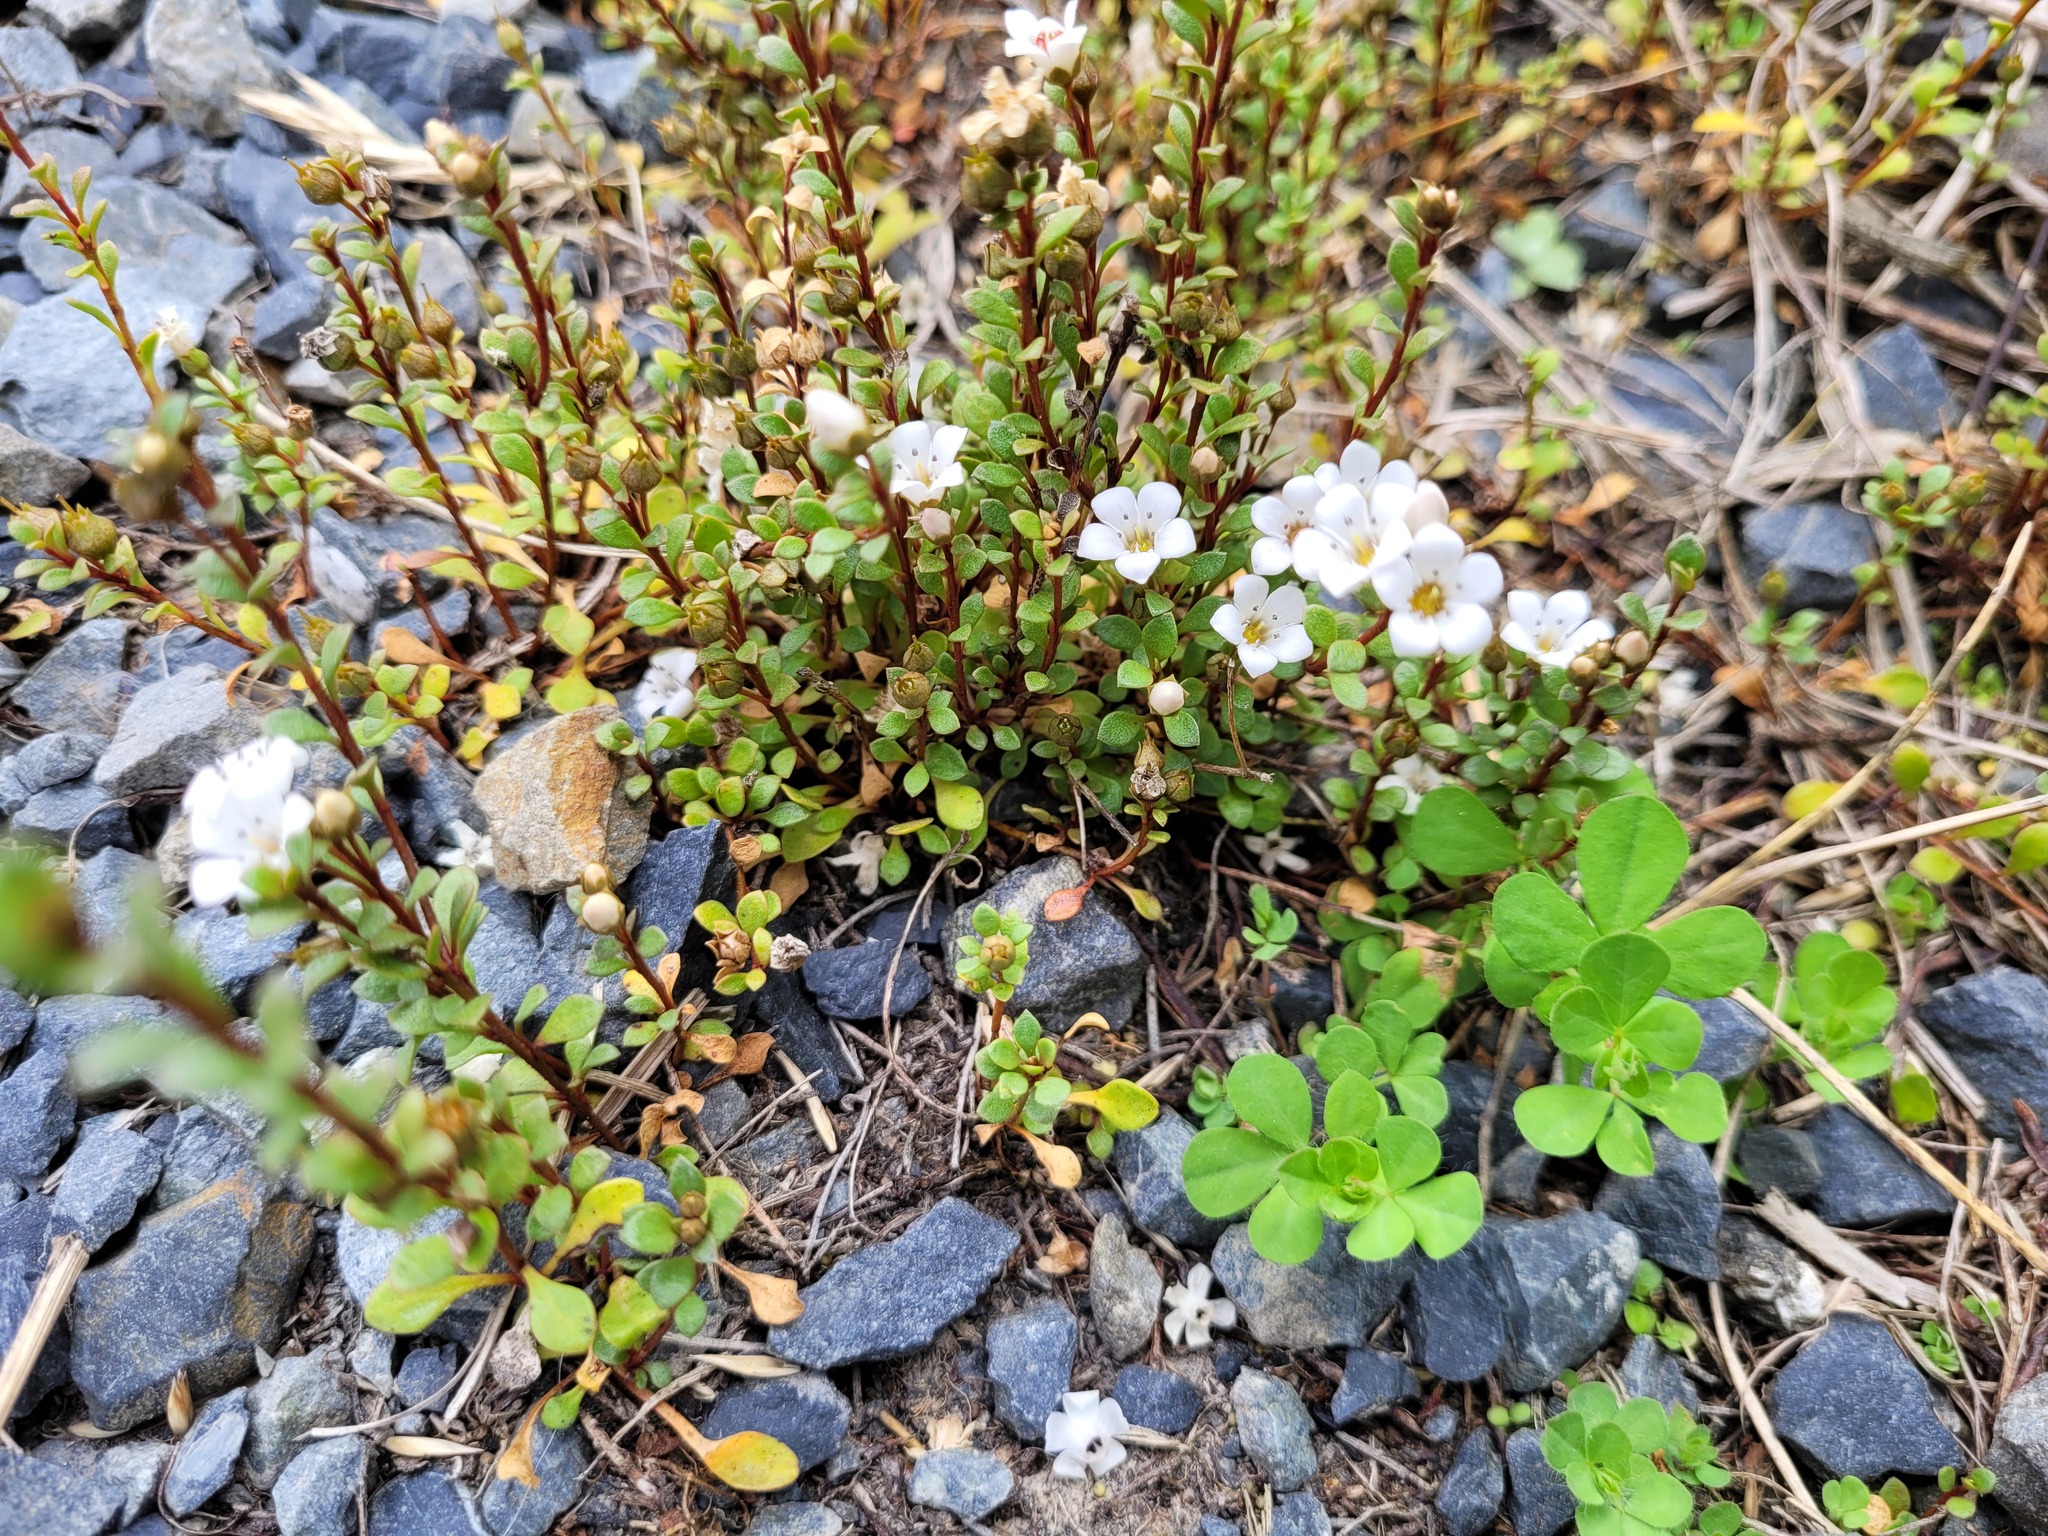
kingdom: Plantae
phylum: Tracheophyta
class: Magnoliopsida
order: Ericales
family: Primulaceae
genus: Samolus
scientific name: Samolus repens
